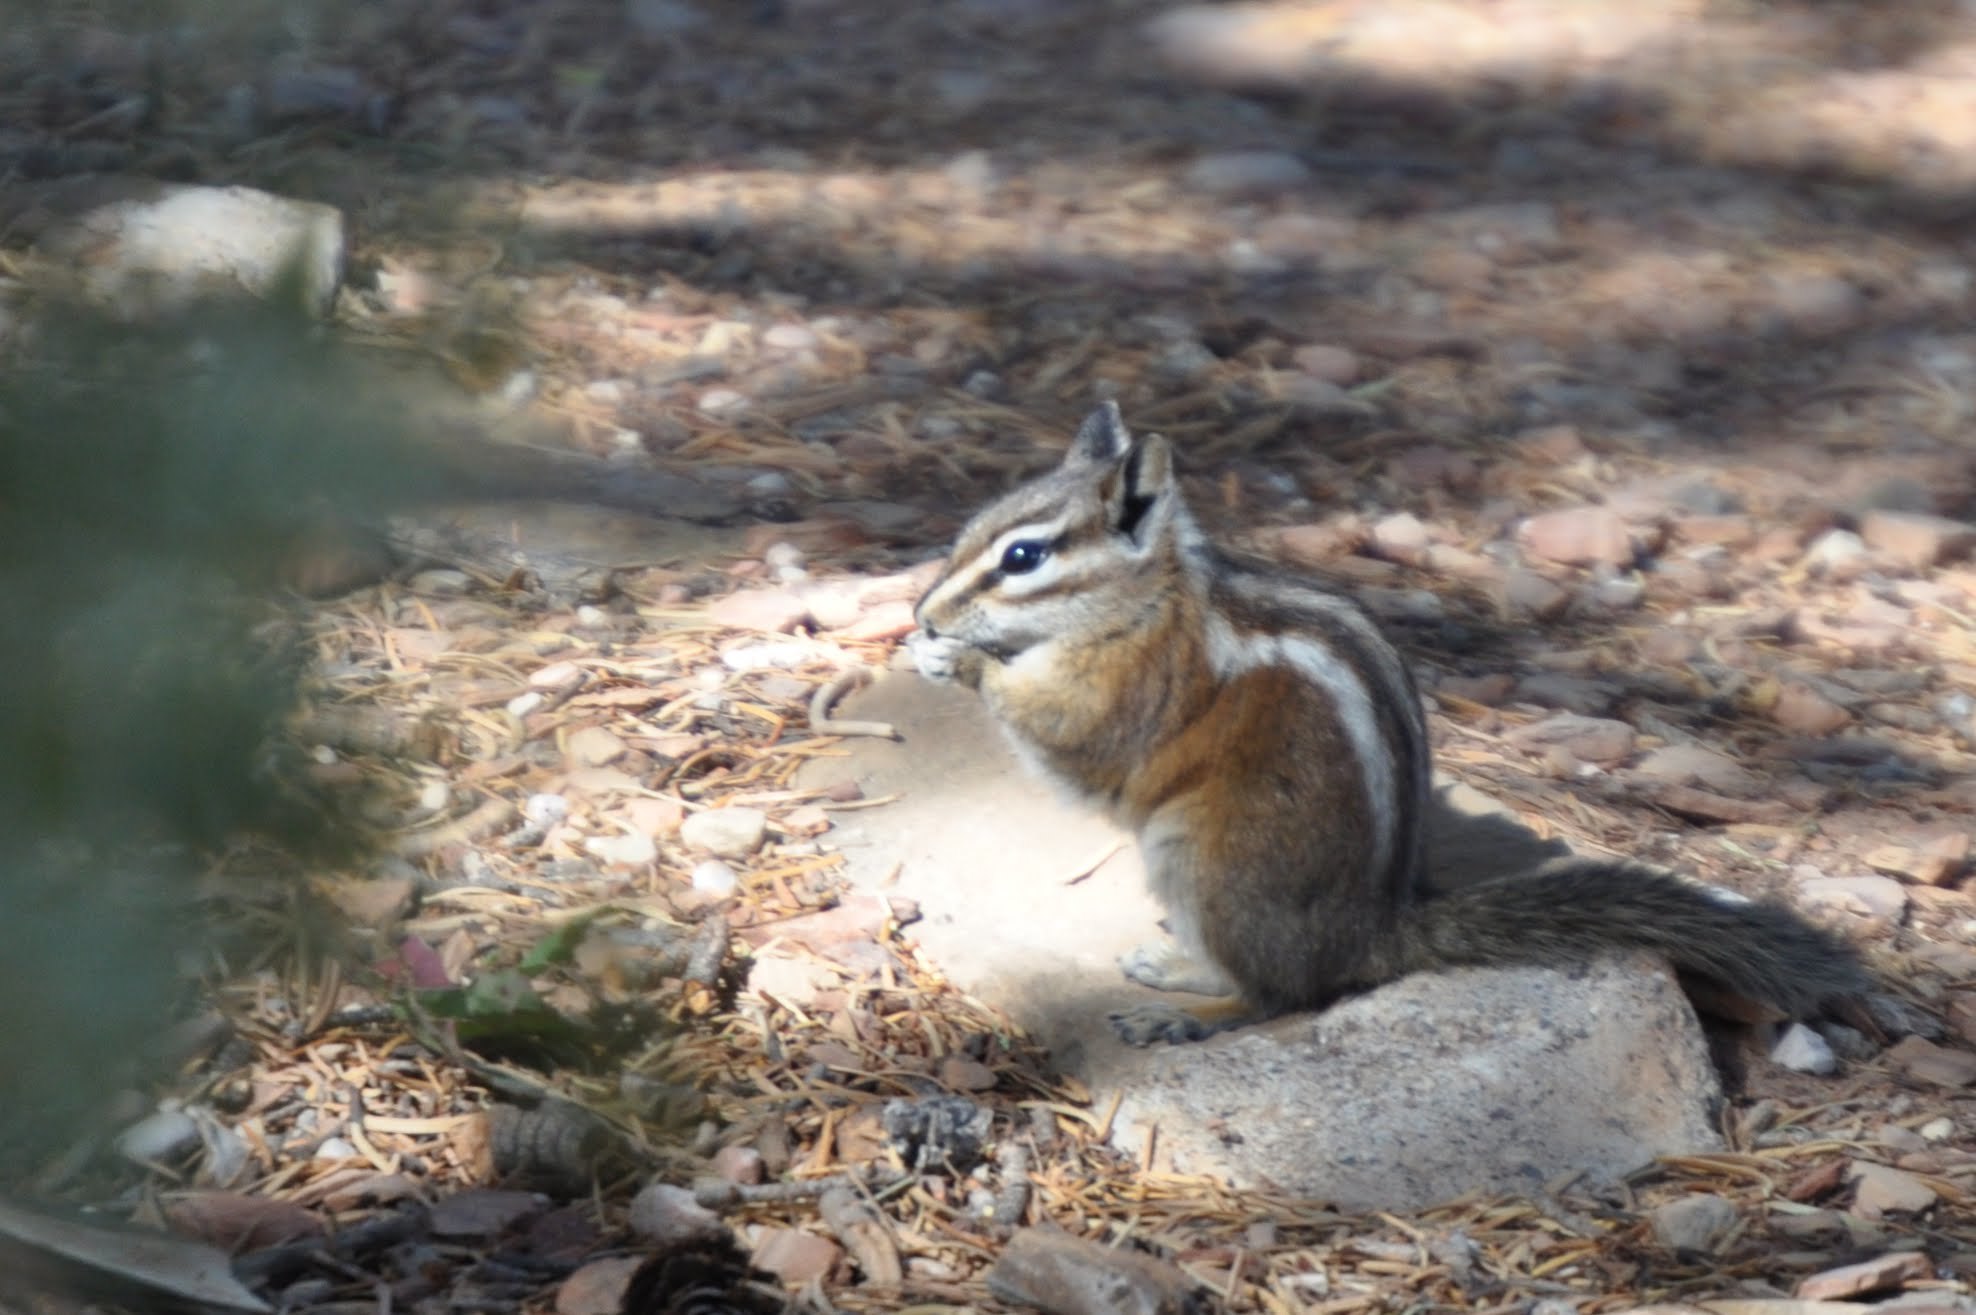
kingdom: Animalia
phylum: Chordata
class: Mammalia
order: Rodentia
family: Sciuridae
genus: Tamias
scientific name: Tamias minimus
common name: Least chipmunk
